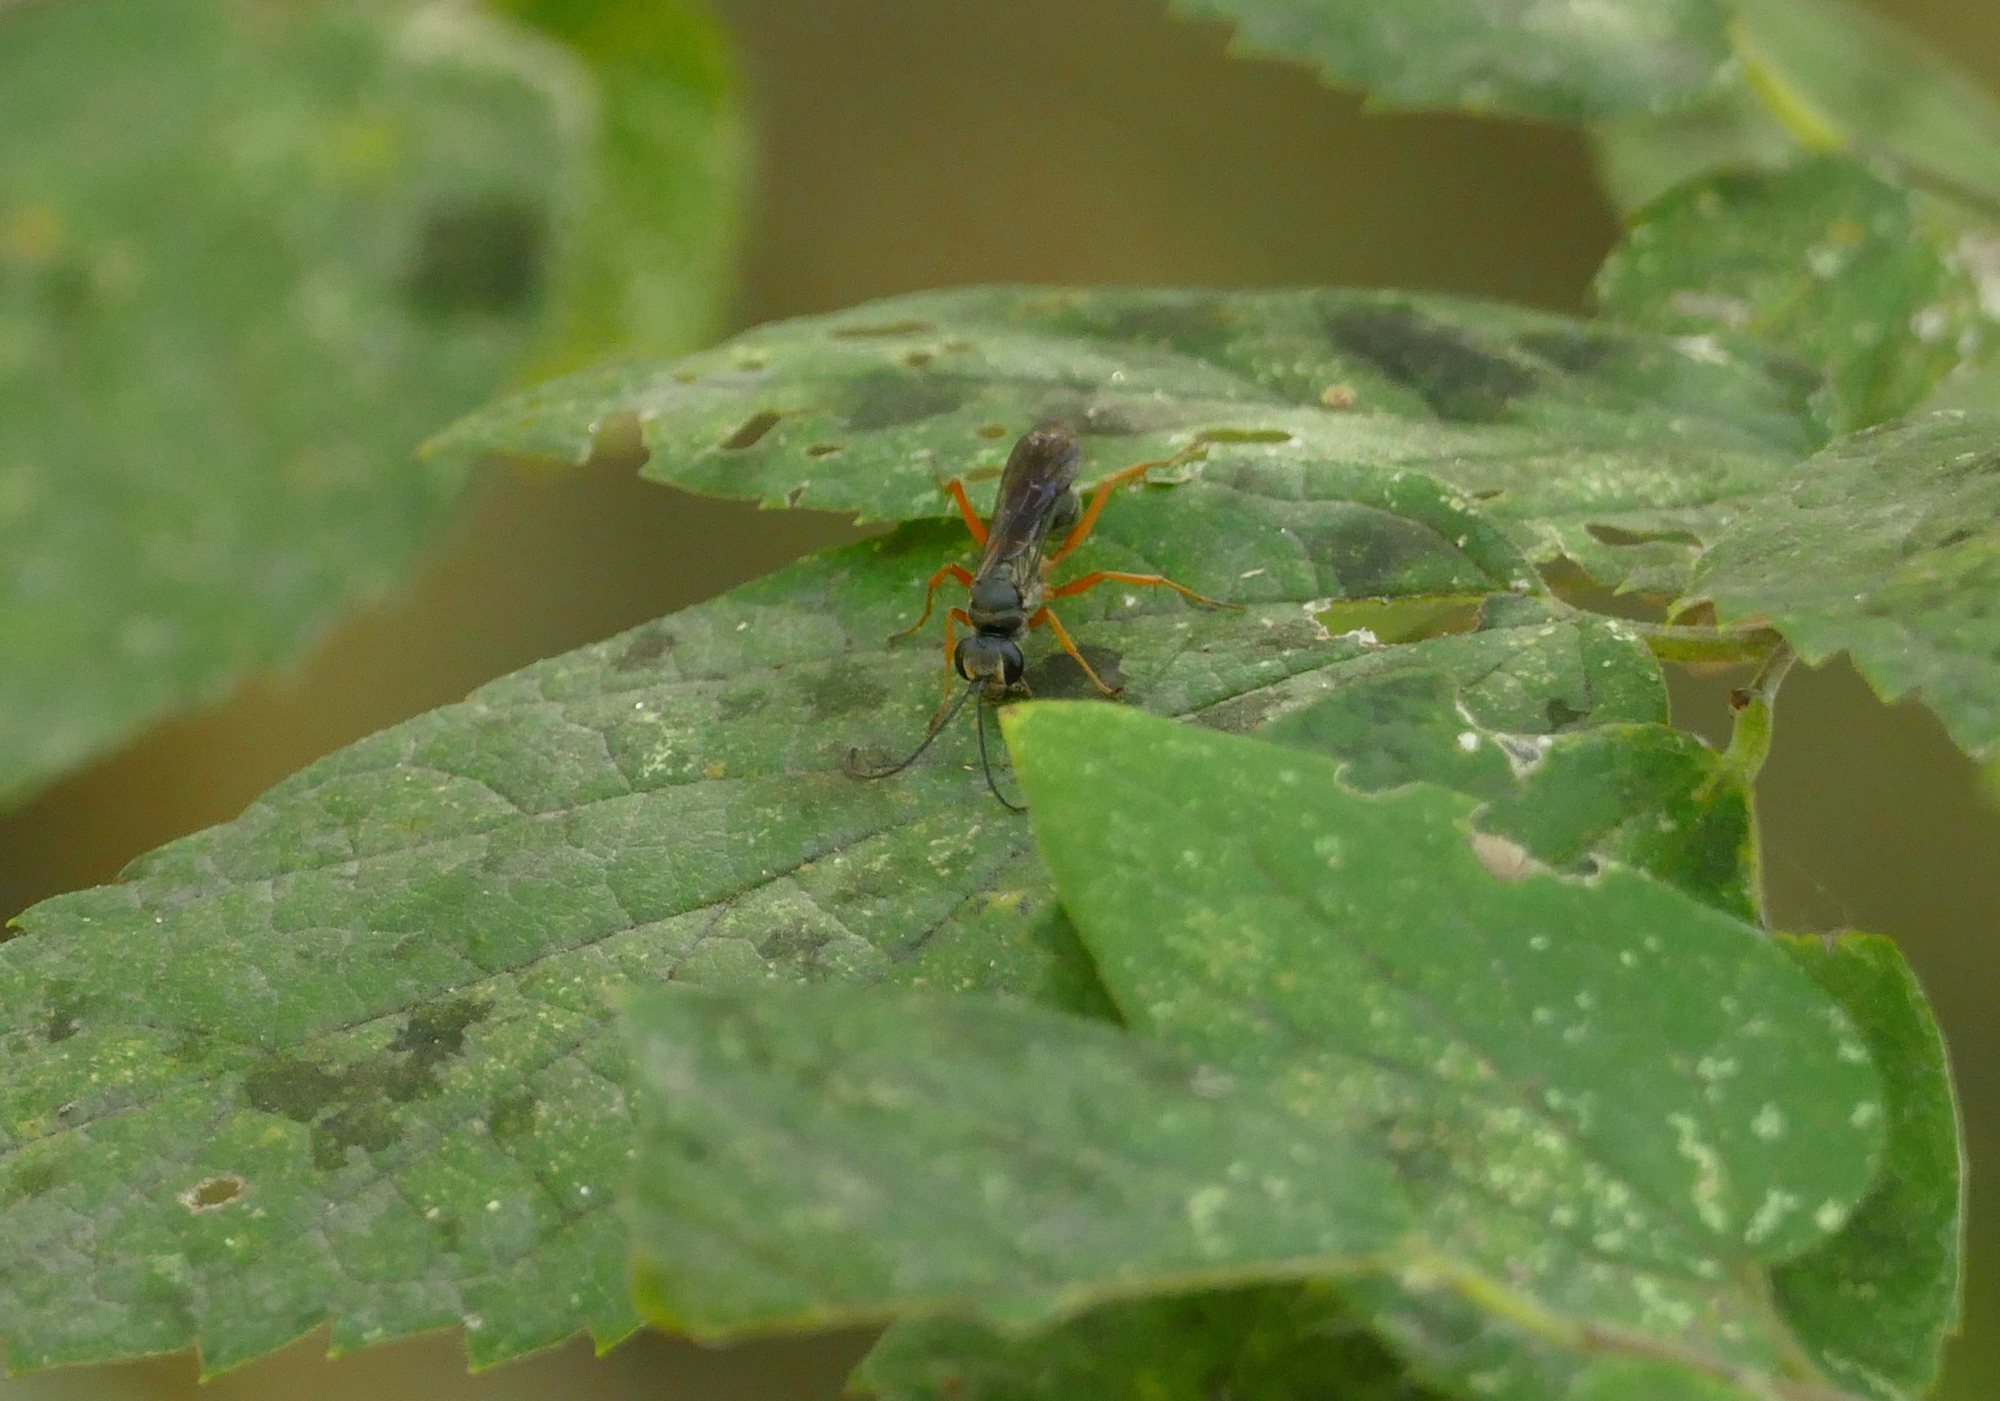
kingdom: Animalia
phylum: Arthropoda
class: Insecta
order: Hymenoptera
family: Pompilidae
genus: Auplopus
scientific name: Auplopus adjunctus
